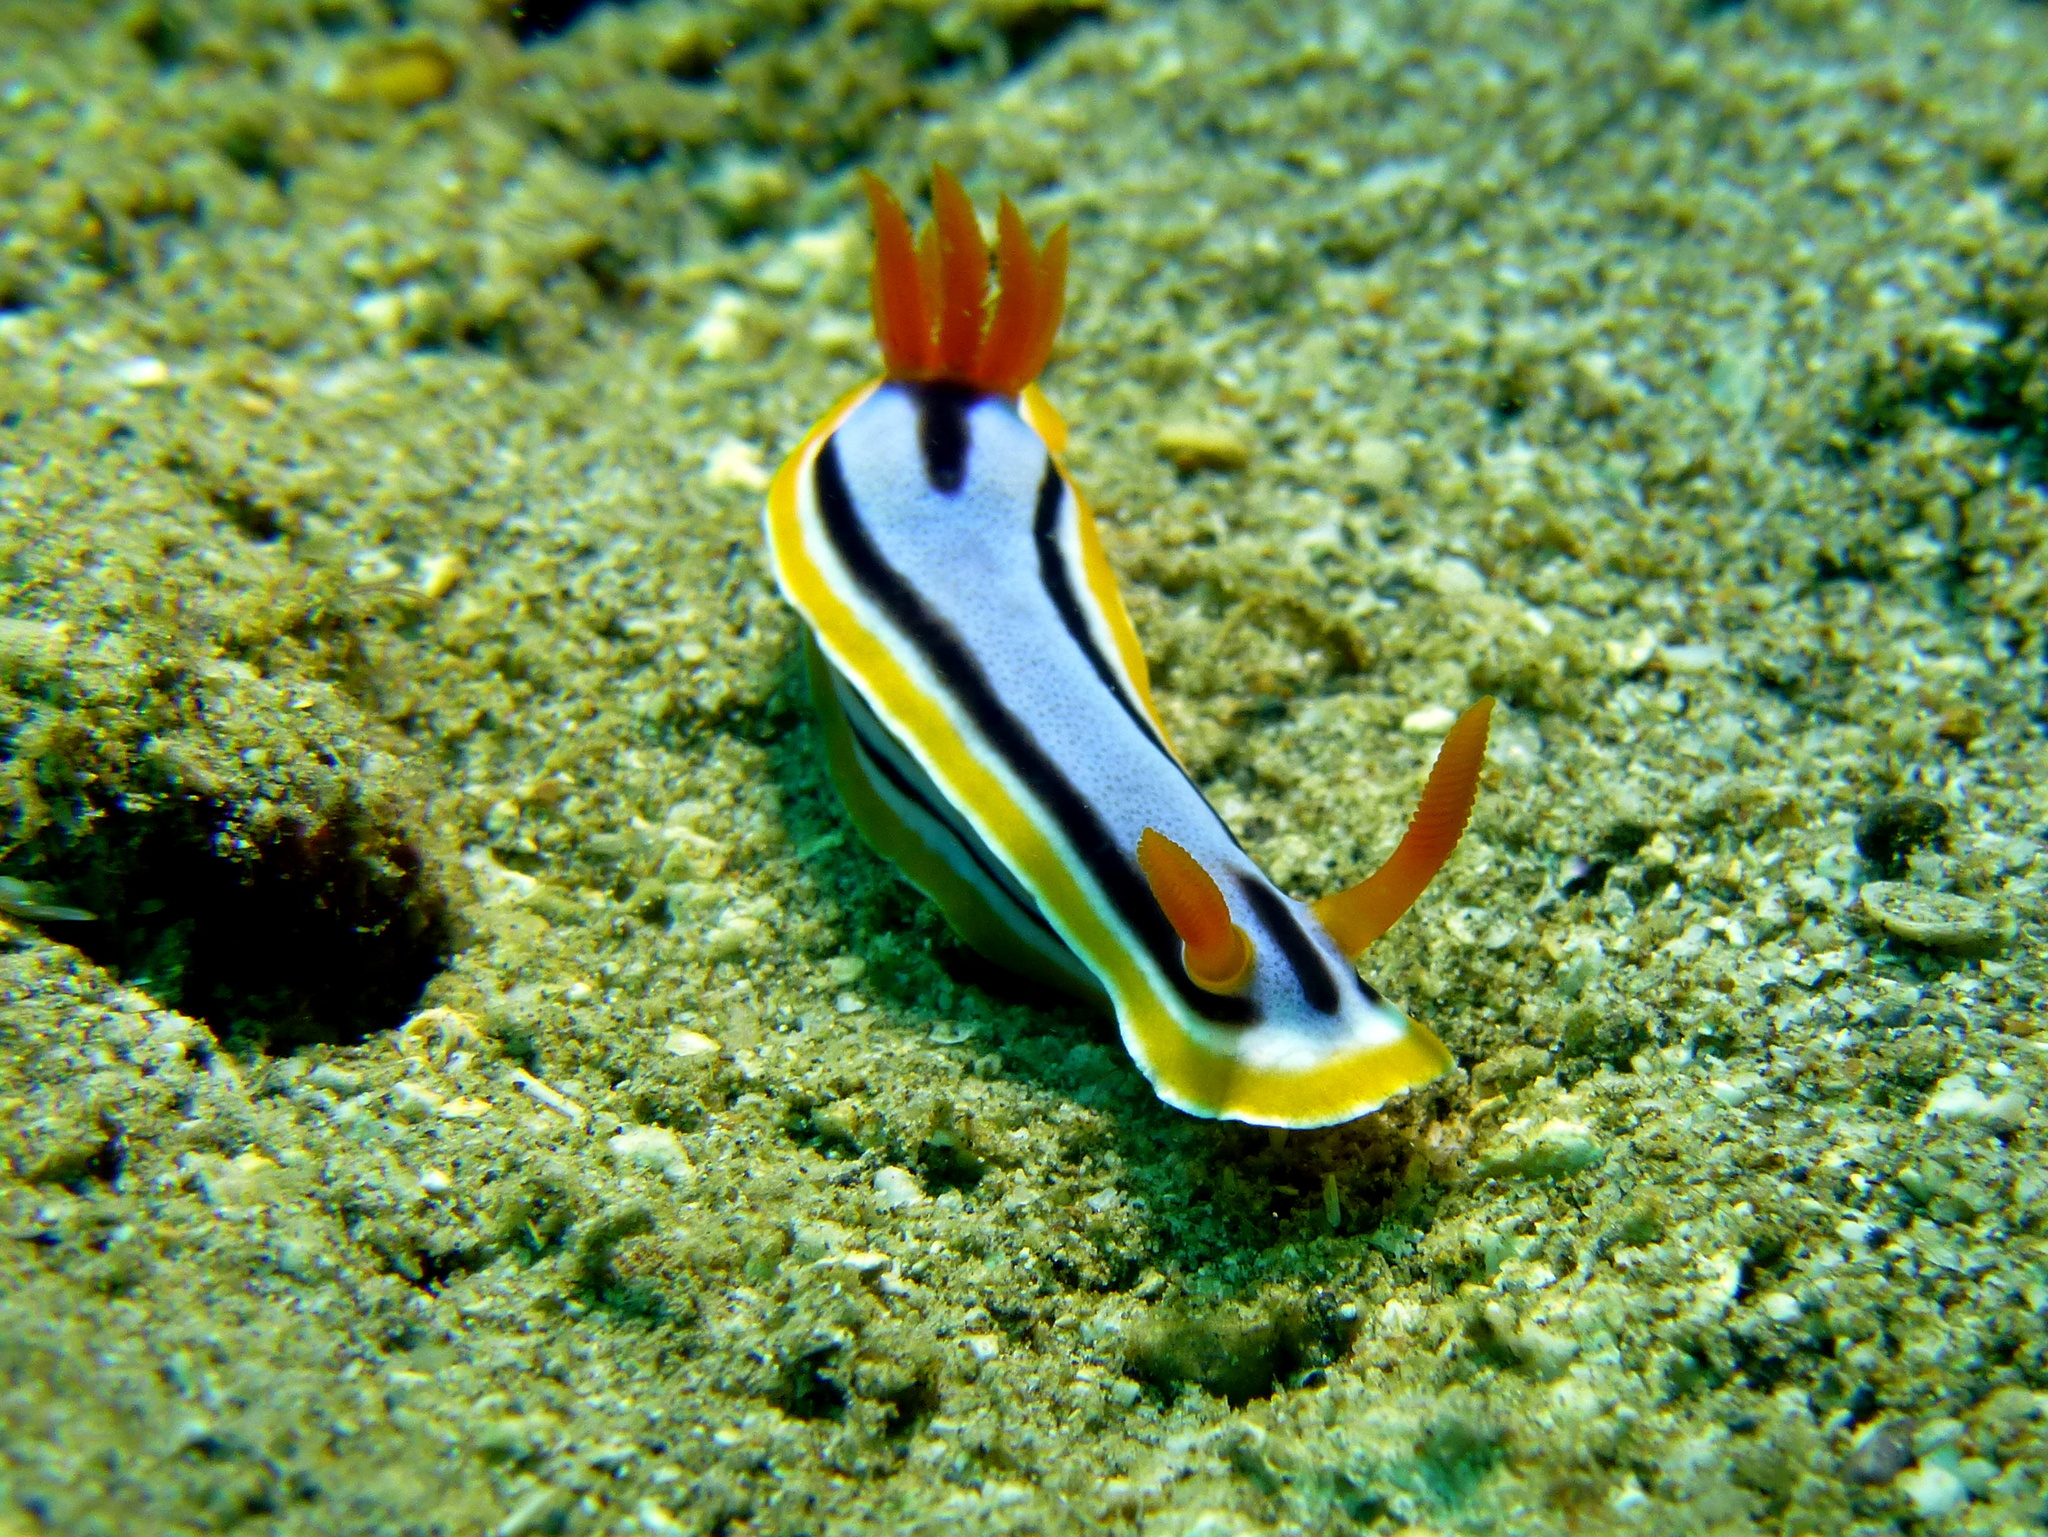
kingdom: Animalia
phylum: Mollusca
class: Gastropoda
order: Nudibranchia
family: Chromodorididae
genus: Chromodoris
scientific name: Chromodoris annae
